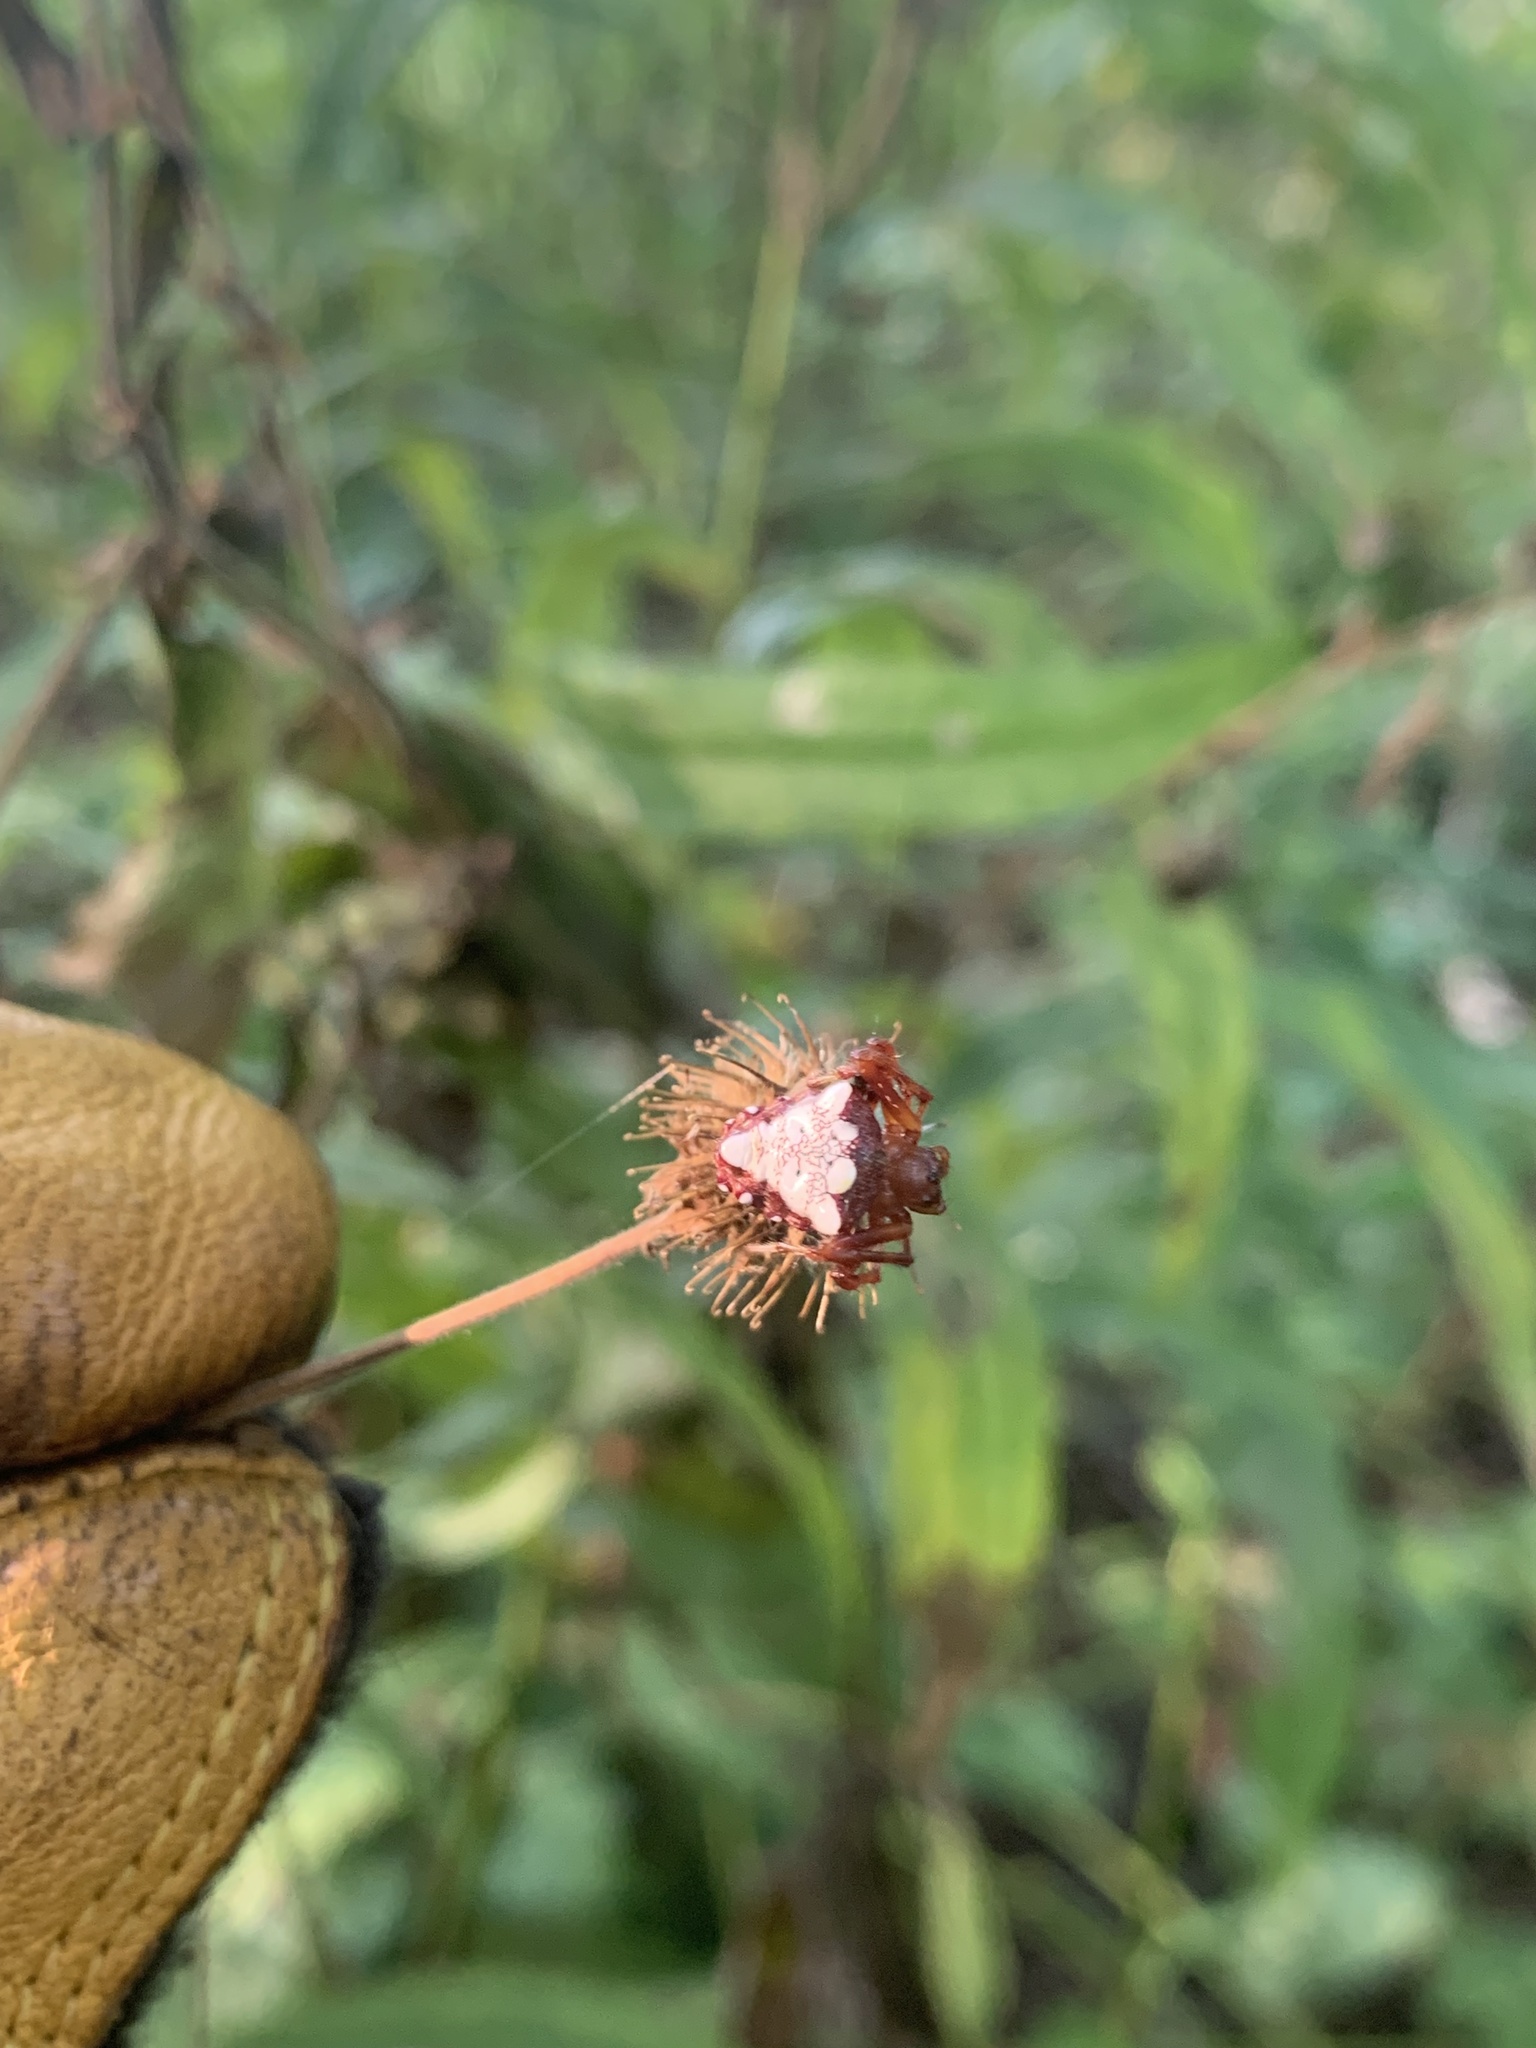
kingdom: Animalia
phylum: Arthropoda
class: Arachnida
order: Araneae
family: Araneidae
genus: Verrucosa
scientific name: Verrucosa arenata
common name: Orb weavers
